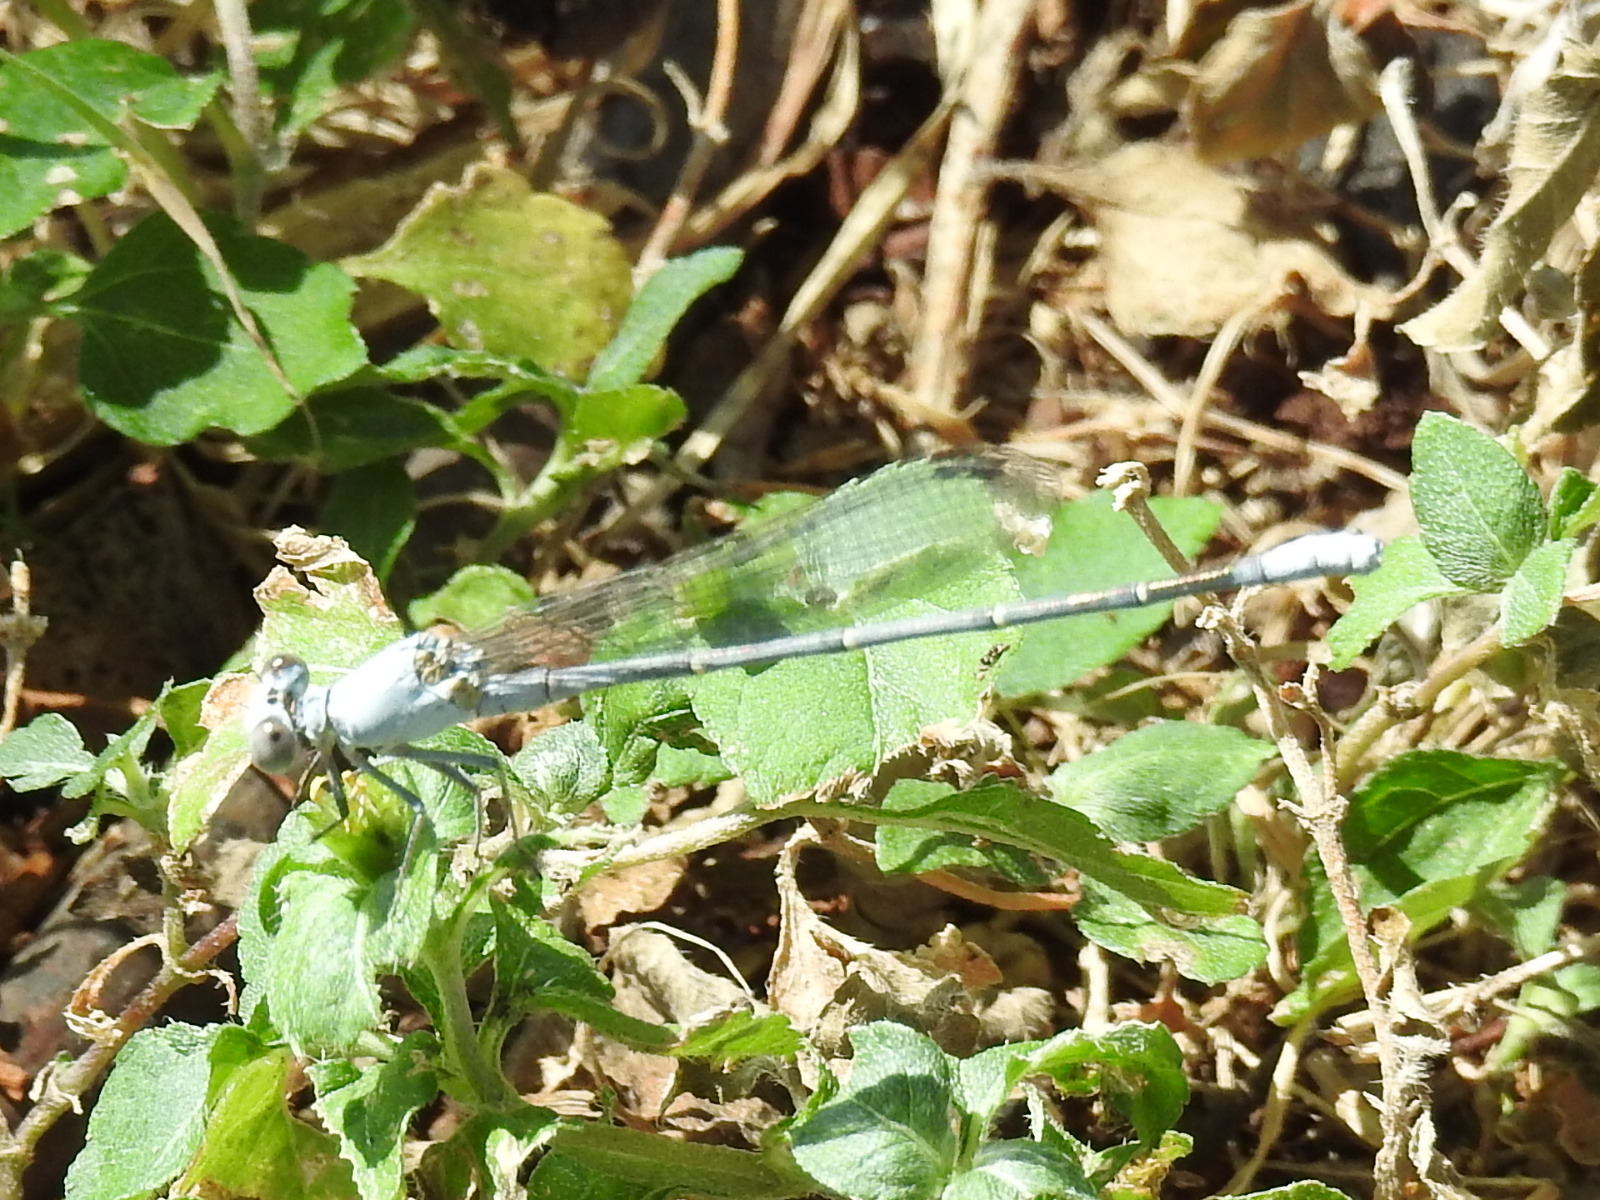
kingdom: Animalia
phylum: Arthropoda
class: Insecta
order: Odonata
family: Coenagrionidae
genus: Argia
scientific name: Argia moesta
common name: Powdered dancer
